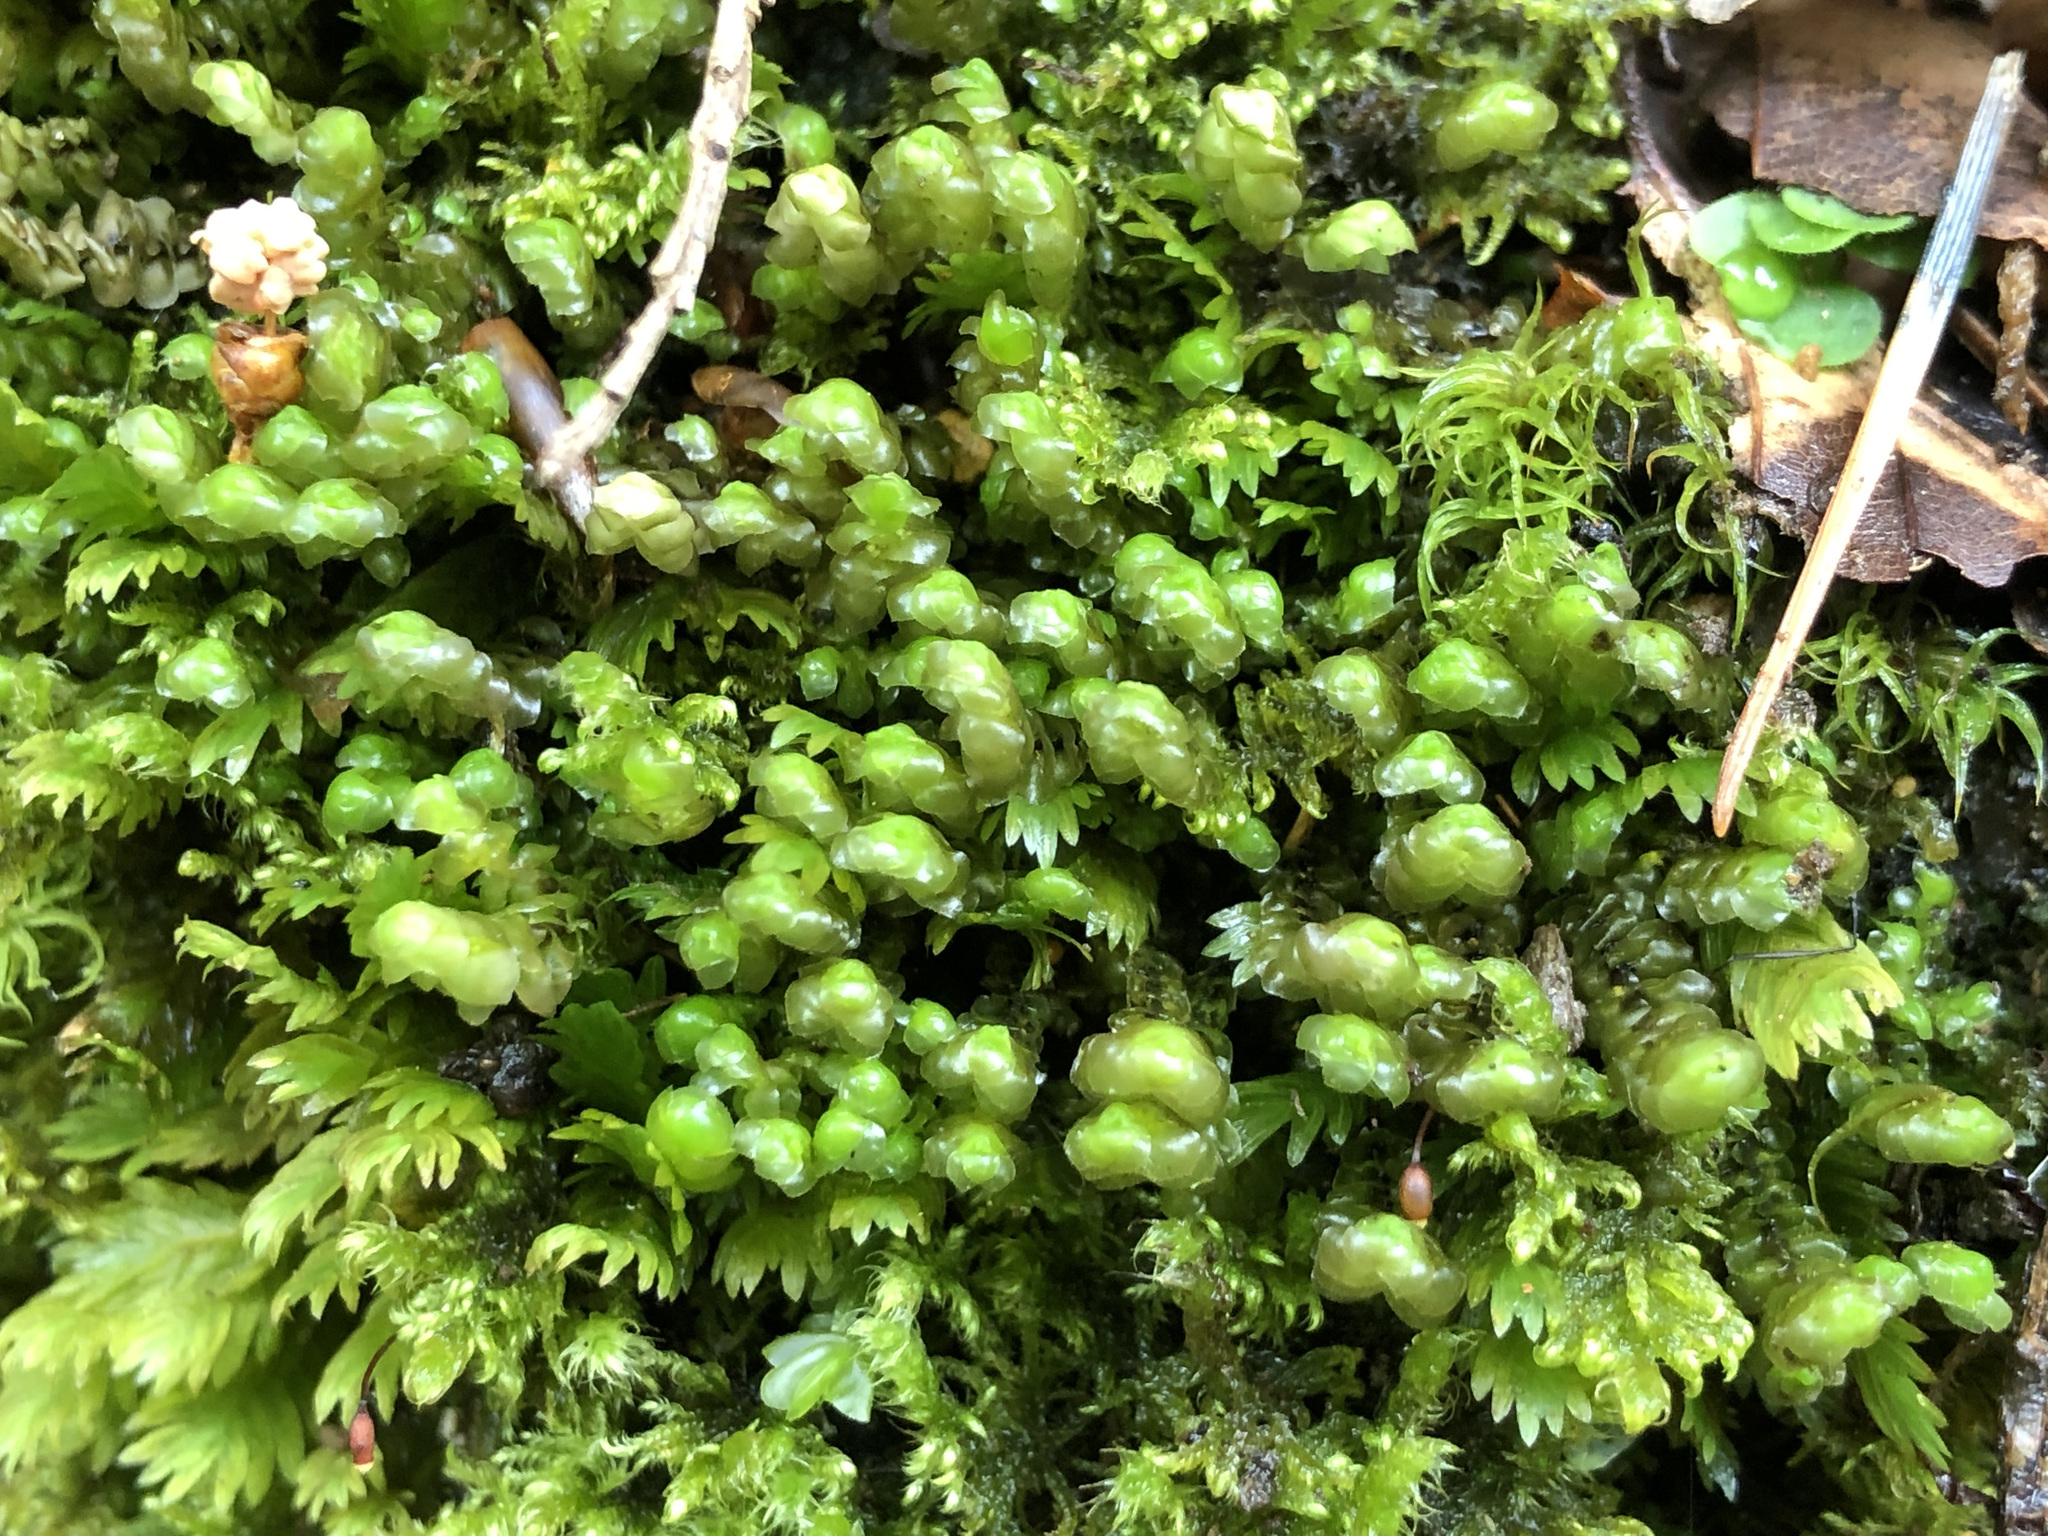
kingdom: Plantae
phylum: Marchantiophyta
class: Jungermanniopsida
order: Jungermanniales
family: Scapaniaceae
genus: Scapania
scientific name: Scapania aspera
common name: Rough earwort
